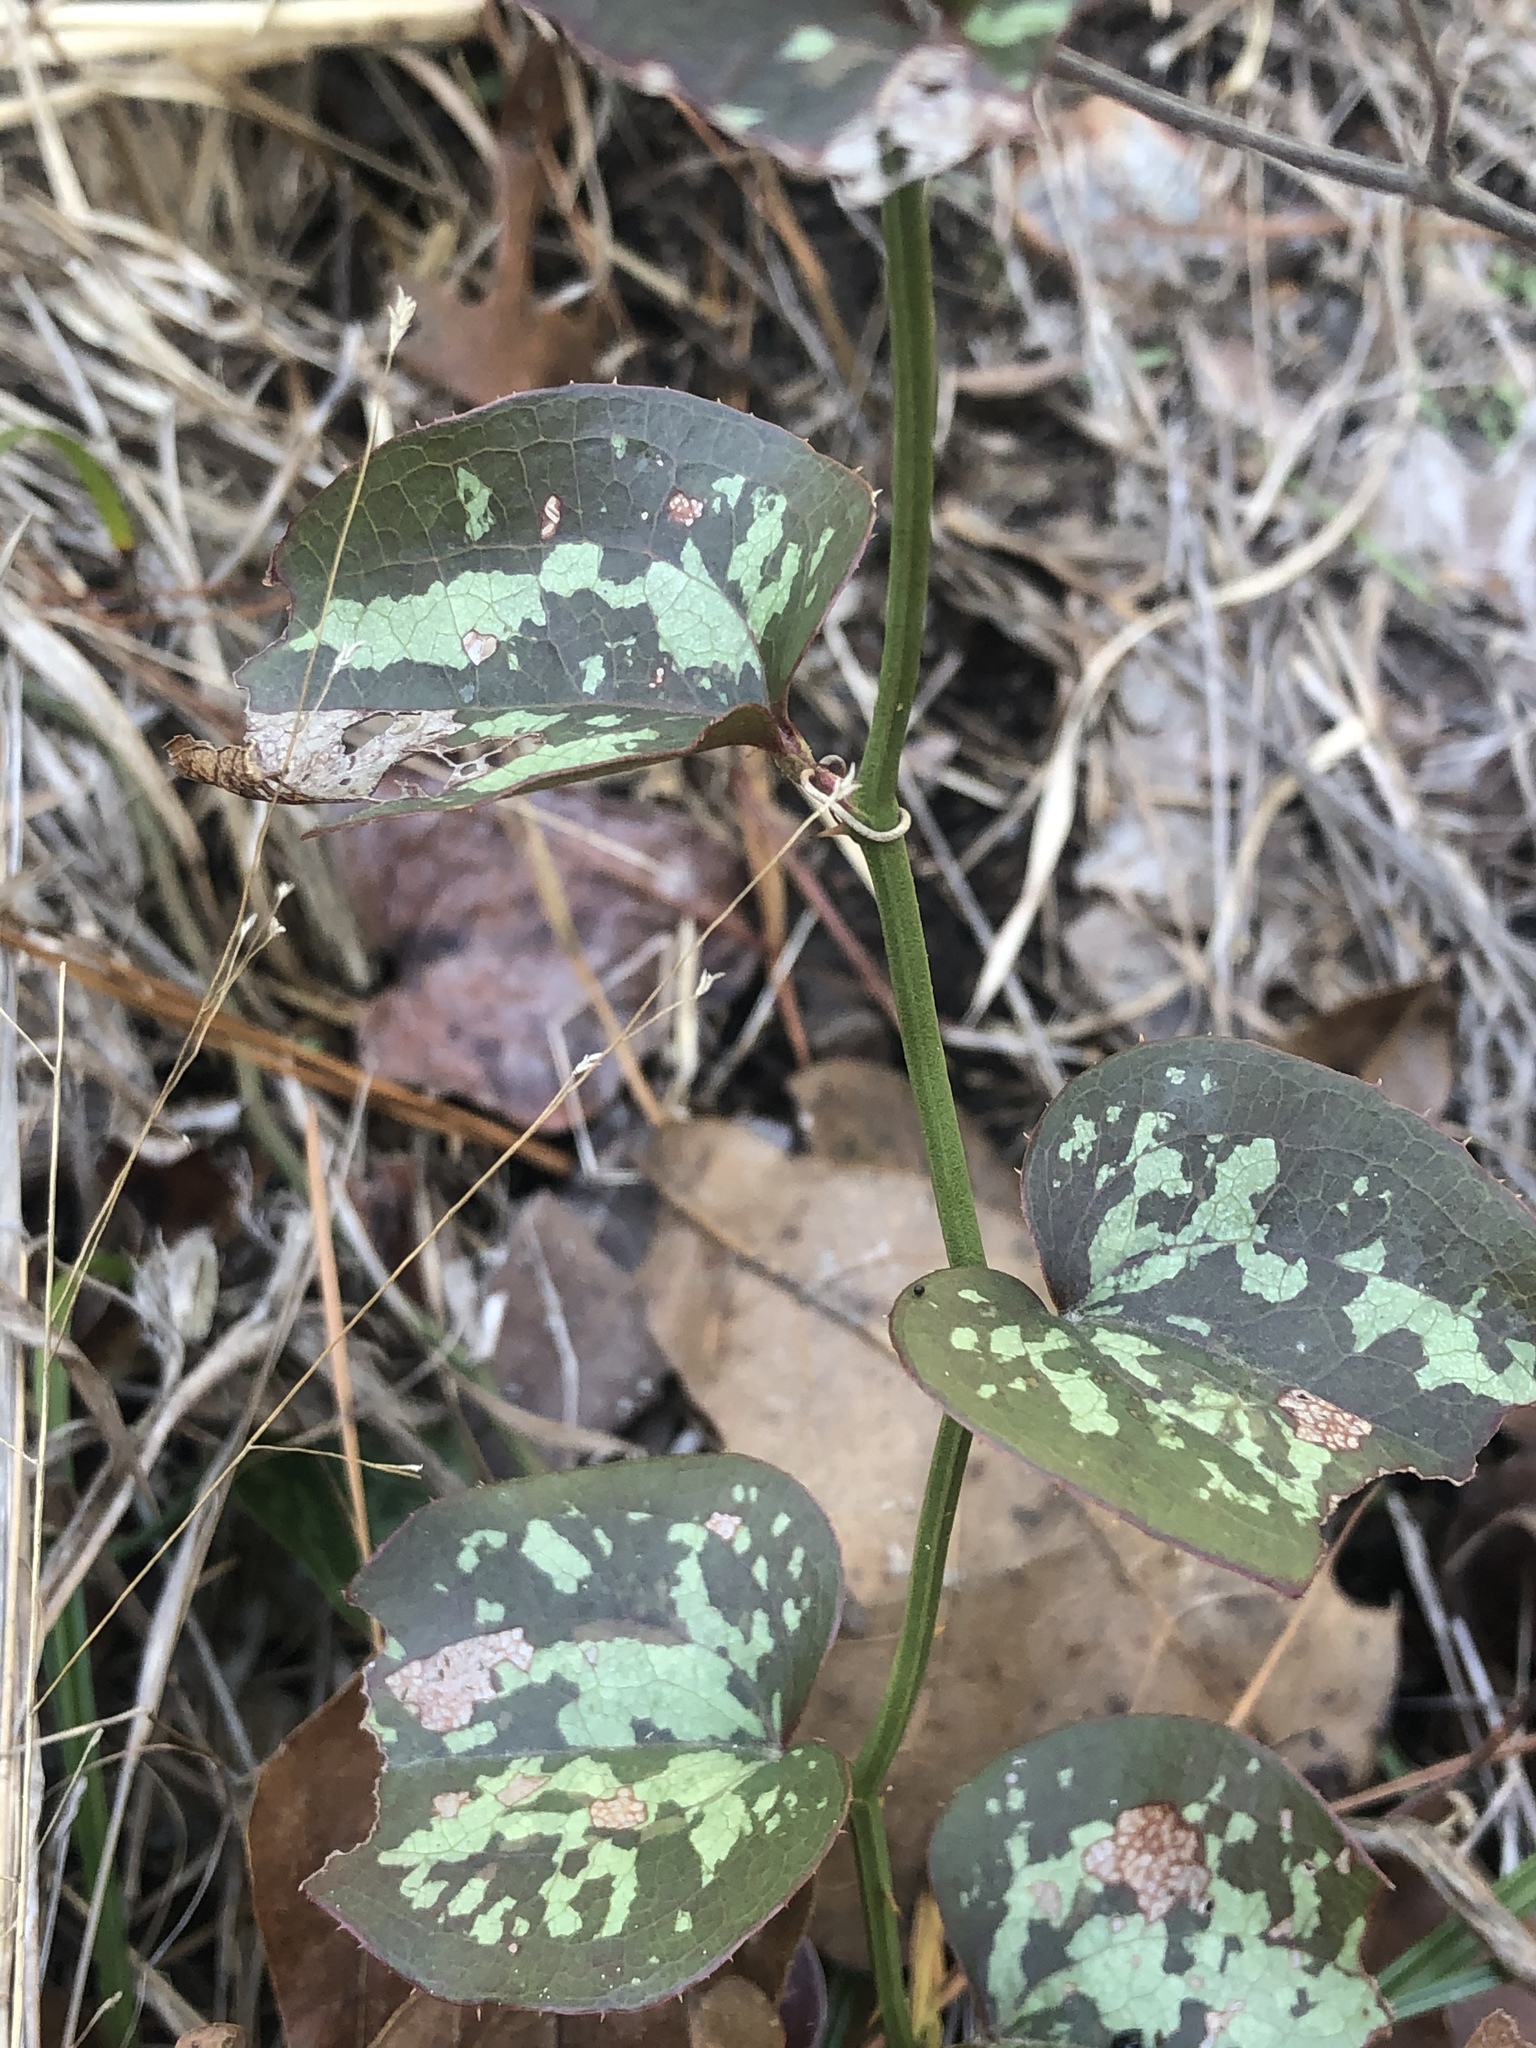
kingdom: Plantae
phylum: Tracheophyta
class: Liliopsida
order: Liliales
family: Smilacaceae
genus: Smilax
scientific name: Smilax bona-nox
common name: Catbrier
